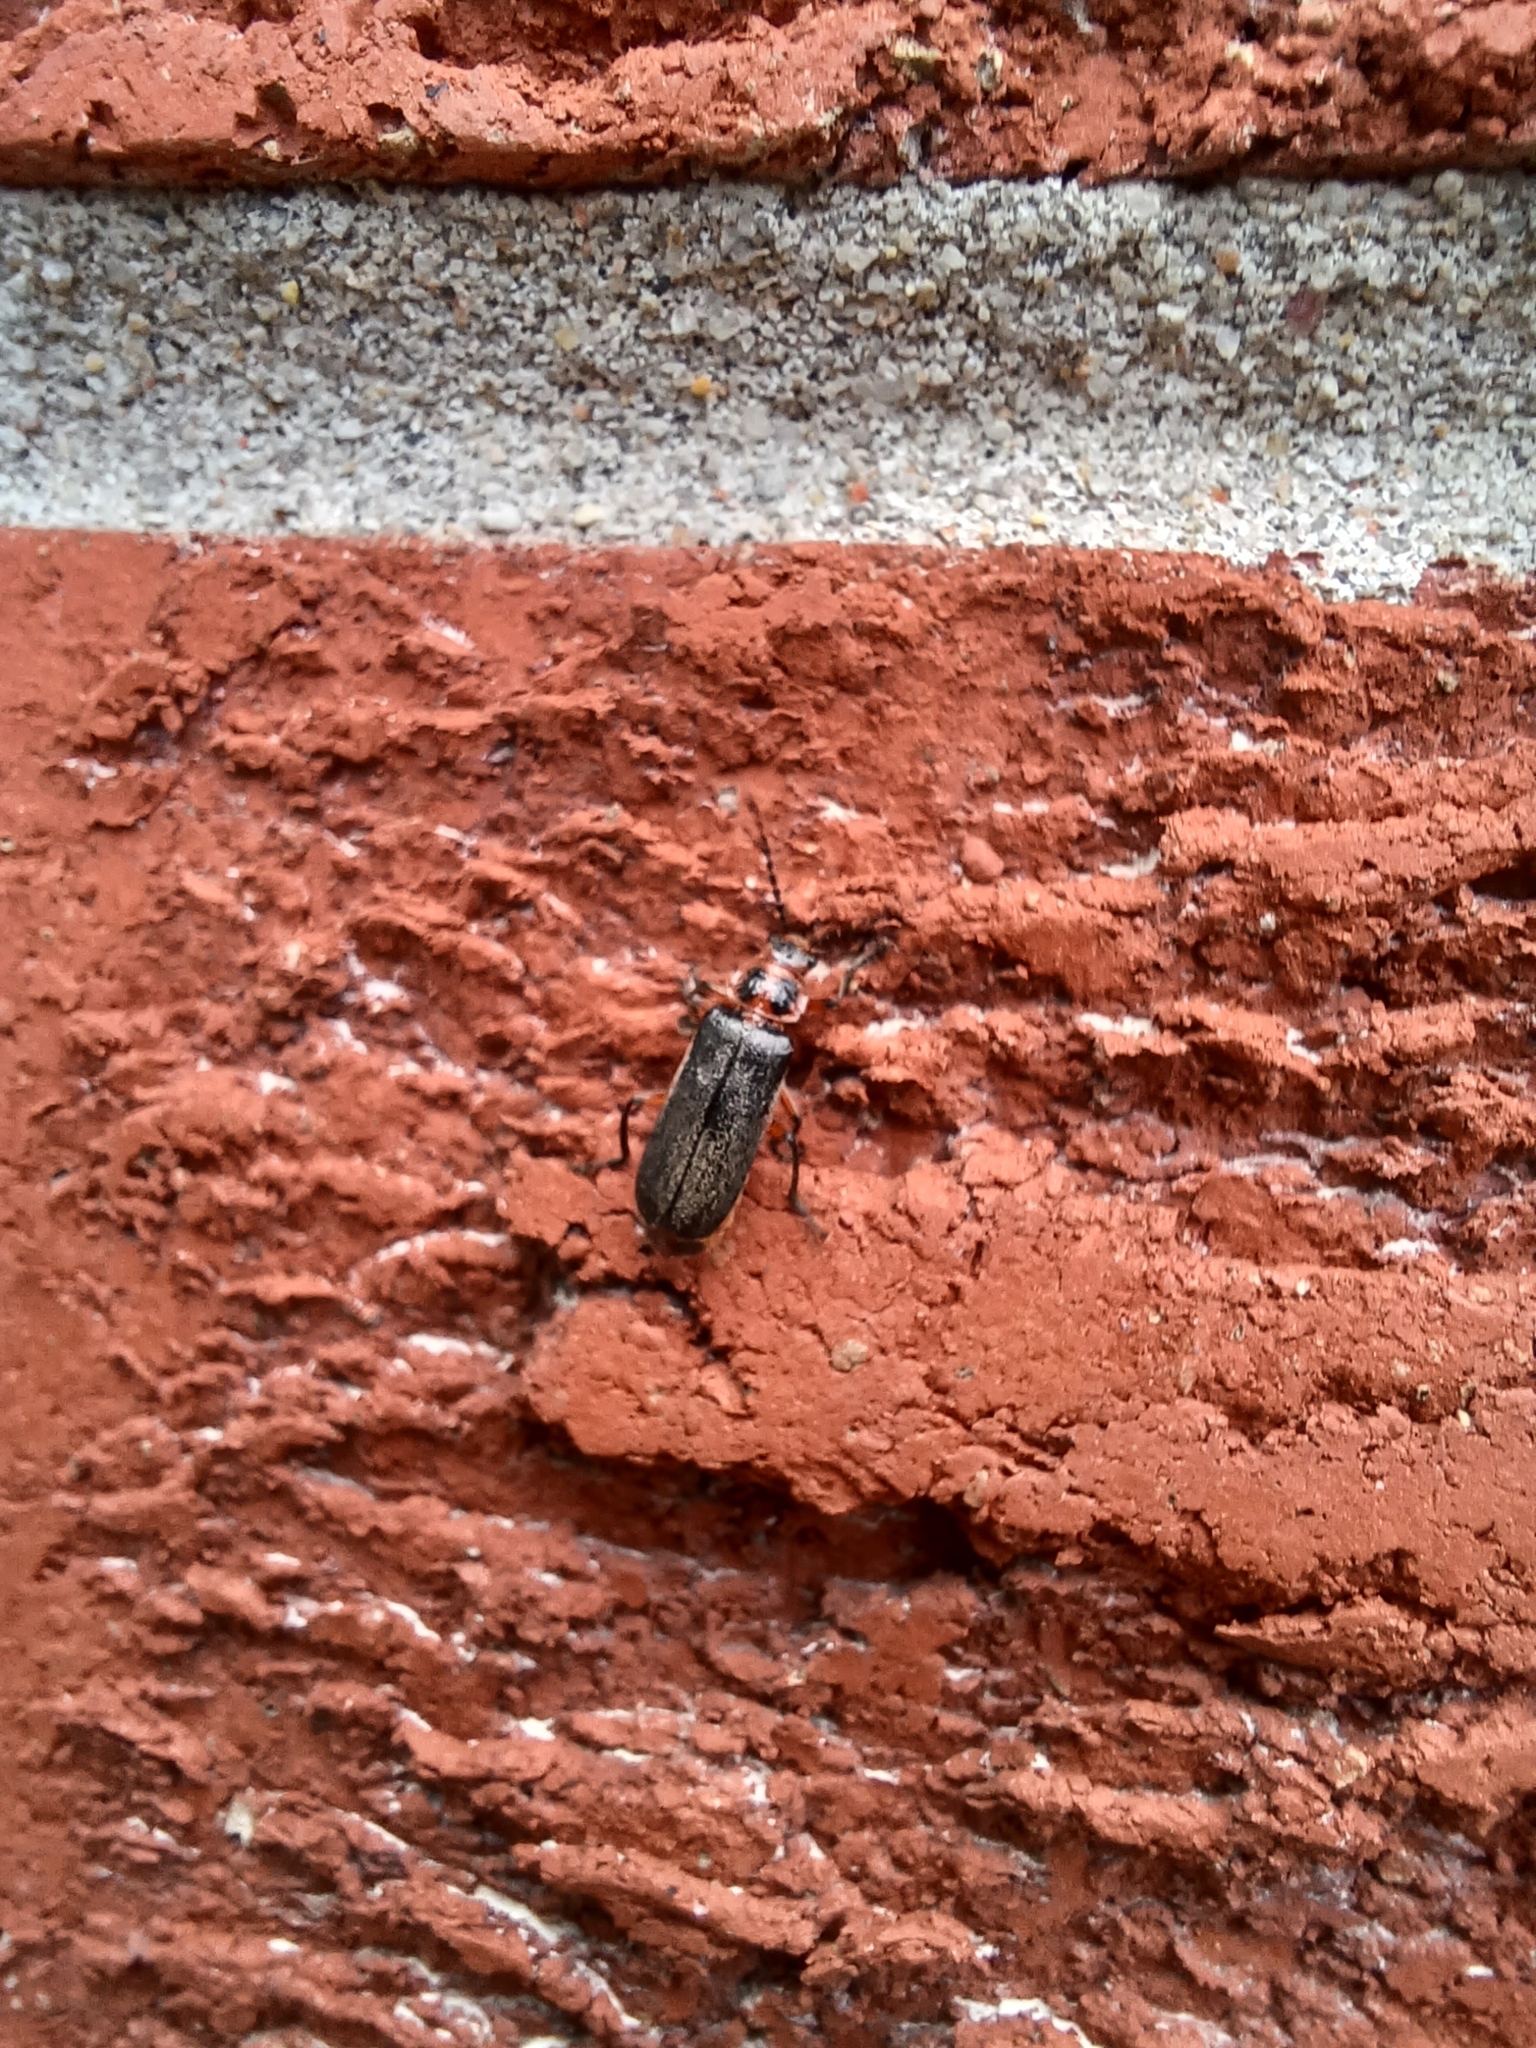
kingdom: Animalia
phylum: Arthropoda
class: Insecta
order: Coleoptera
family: Cantharidae
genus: Atalantycha
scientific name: Atalantycha bilineata
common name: Two-lined leatherwing
